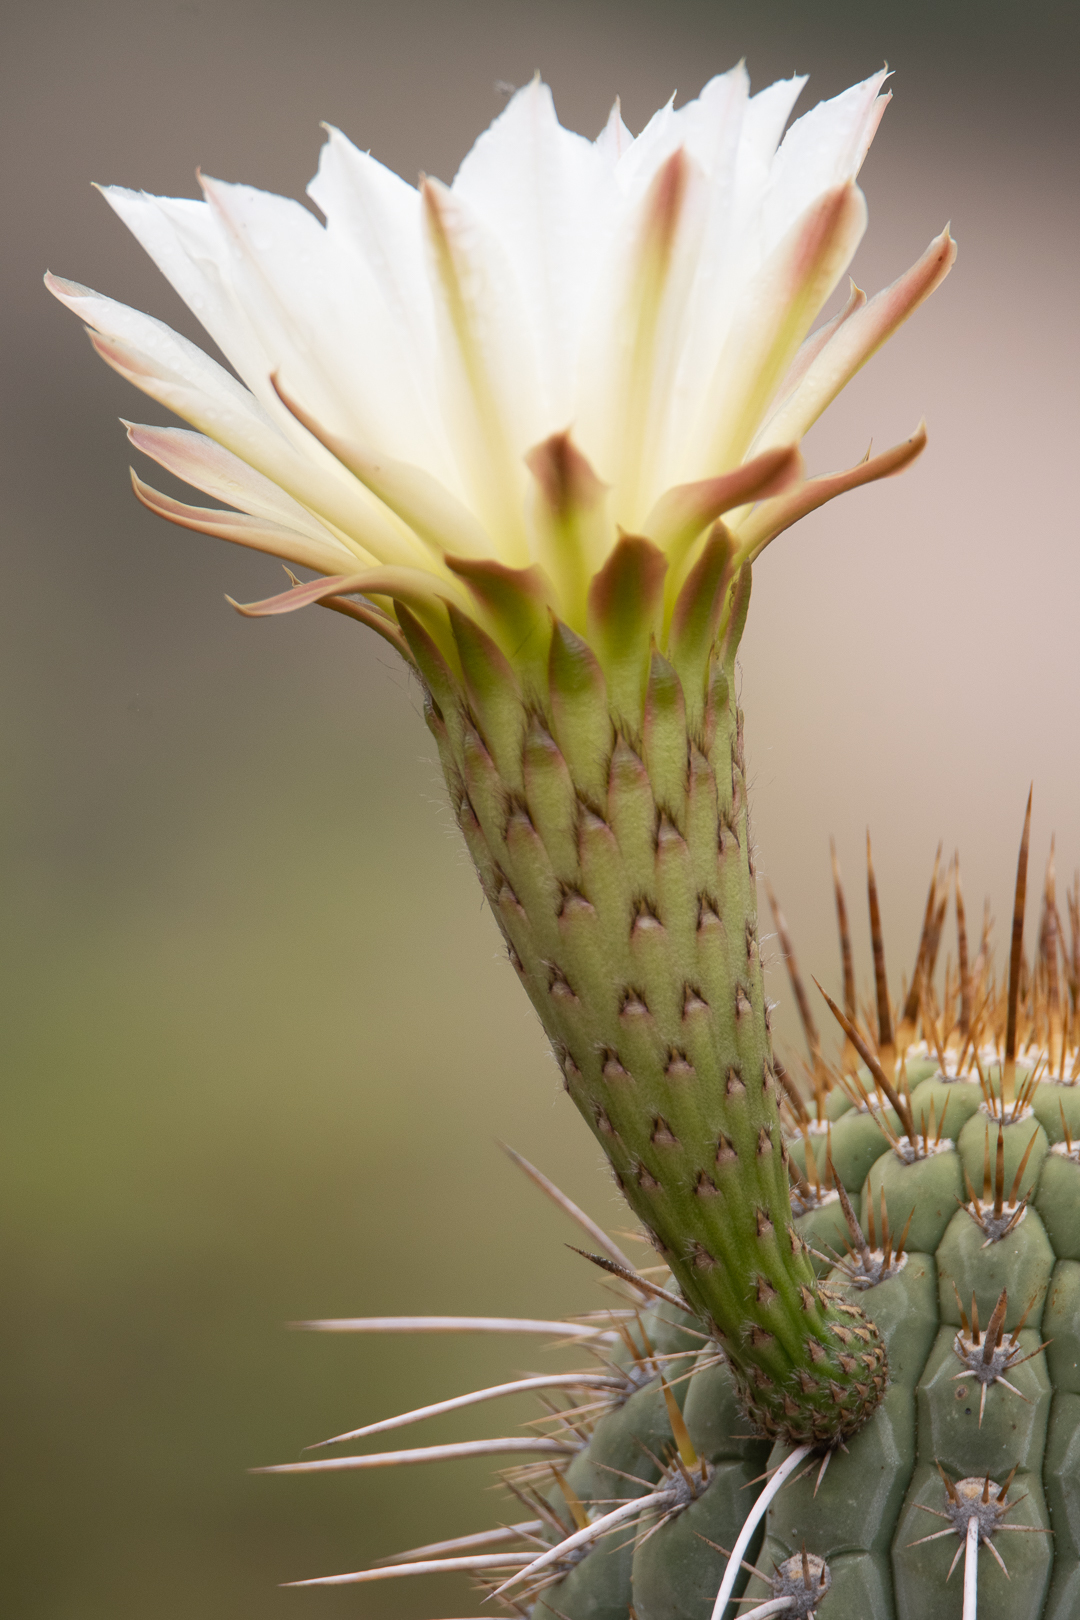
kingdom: Plantae
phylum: Tracheophyta
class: Magnoliopsida
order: Caryophyllales
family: Cactaceae
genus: Leucostele
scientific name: Leucostele chiloensis
